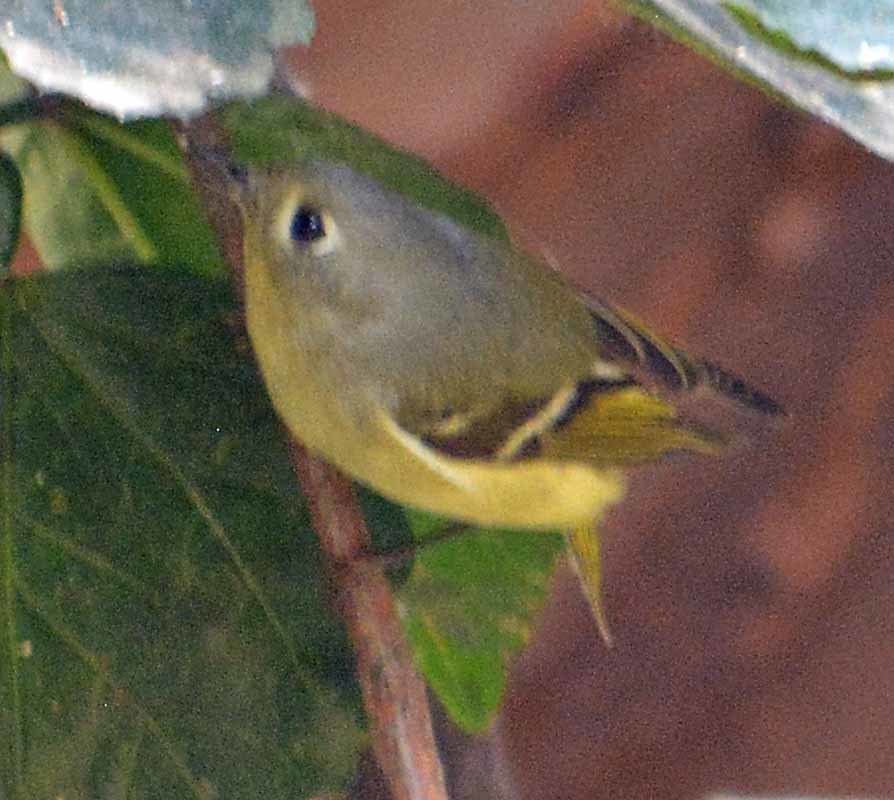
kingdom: Animalia
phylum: Chordata
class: Aves
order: Passeriformes
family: Regulidae
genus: Regulus
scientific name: Regulus calendula
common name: Ruby-crowned kinglet
